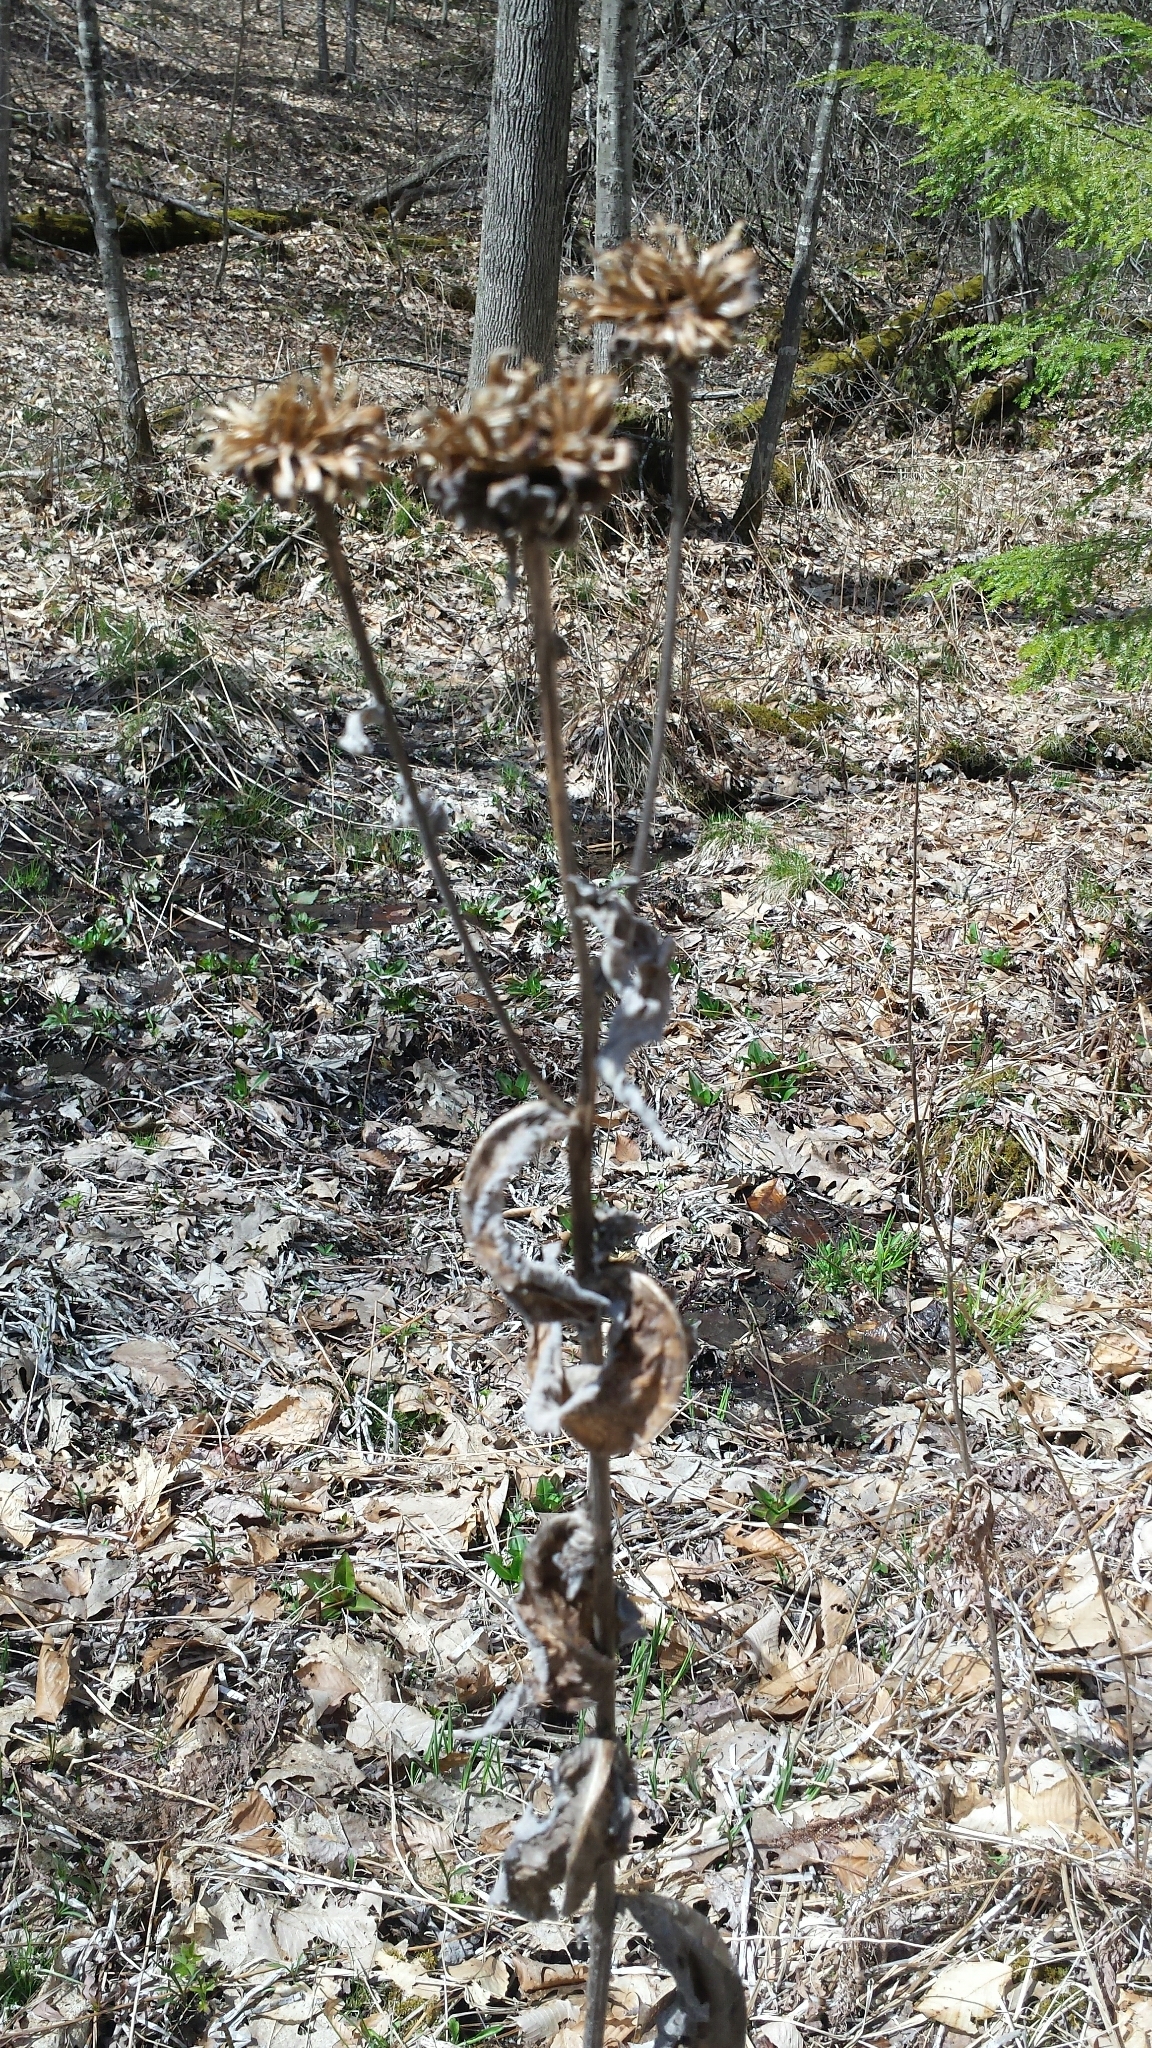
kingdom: Plantae
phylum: Tracheophyta
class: Magnoliopsida
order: Asterales
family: Asteraceae
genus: Inula
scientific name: Inula helenium
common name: Elecampane
